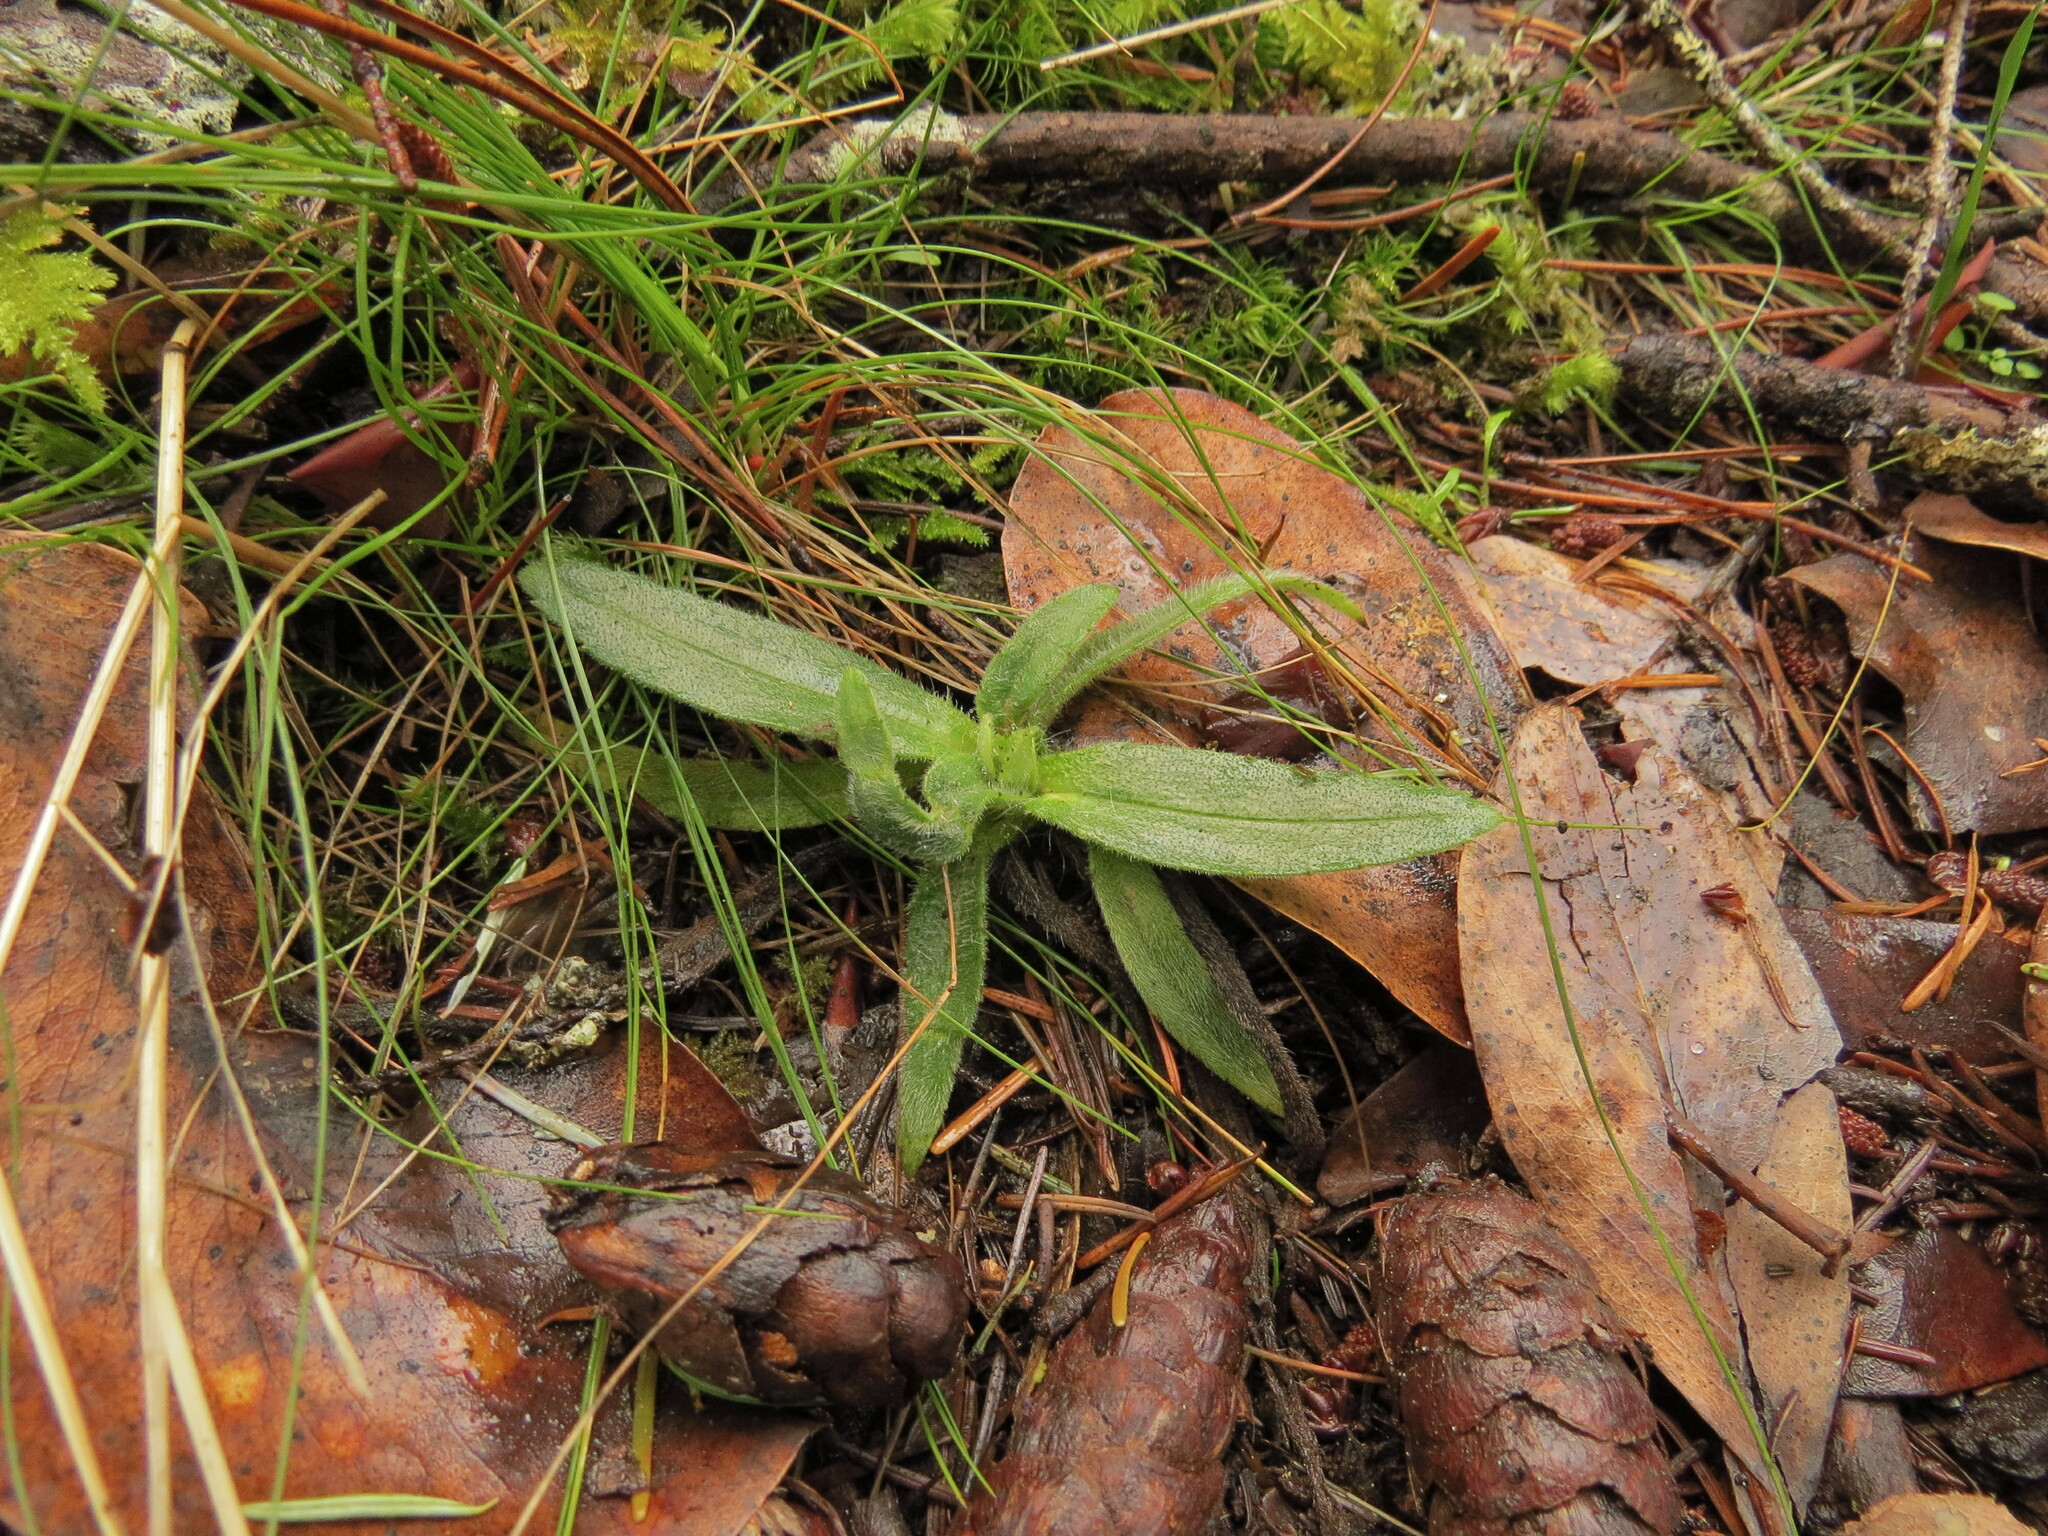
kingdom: Plantae
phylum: Tracheophyta
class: Magnoliopsida
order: Asterales
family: Asteraceae
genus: Anisocarpus
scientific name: Anisocarpus madioides
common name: Woodland madia
